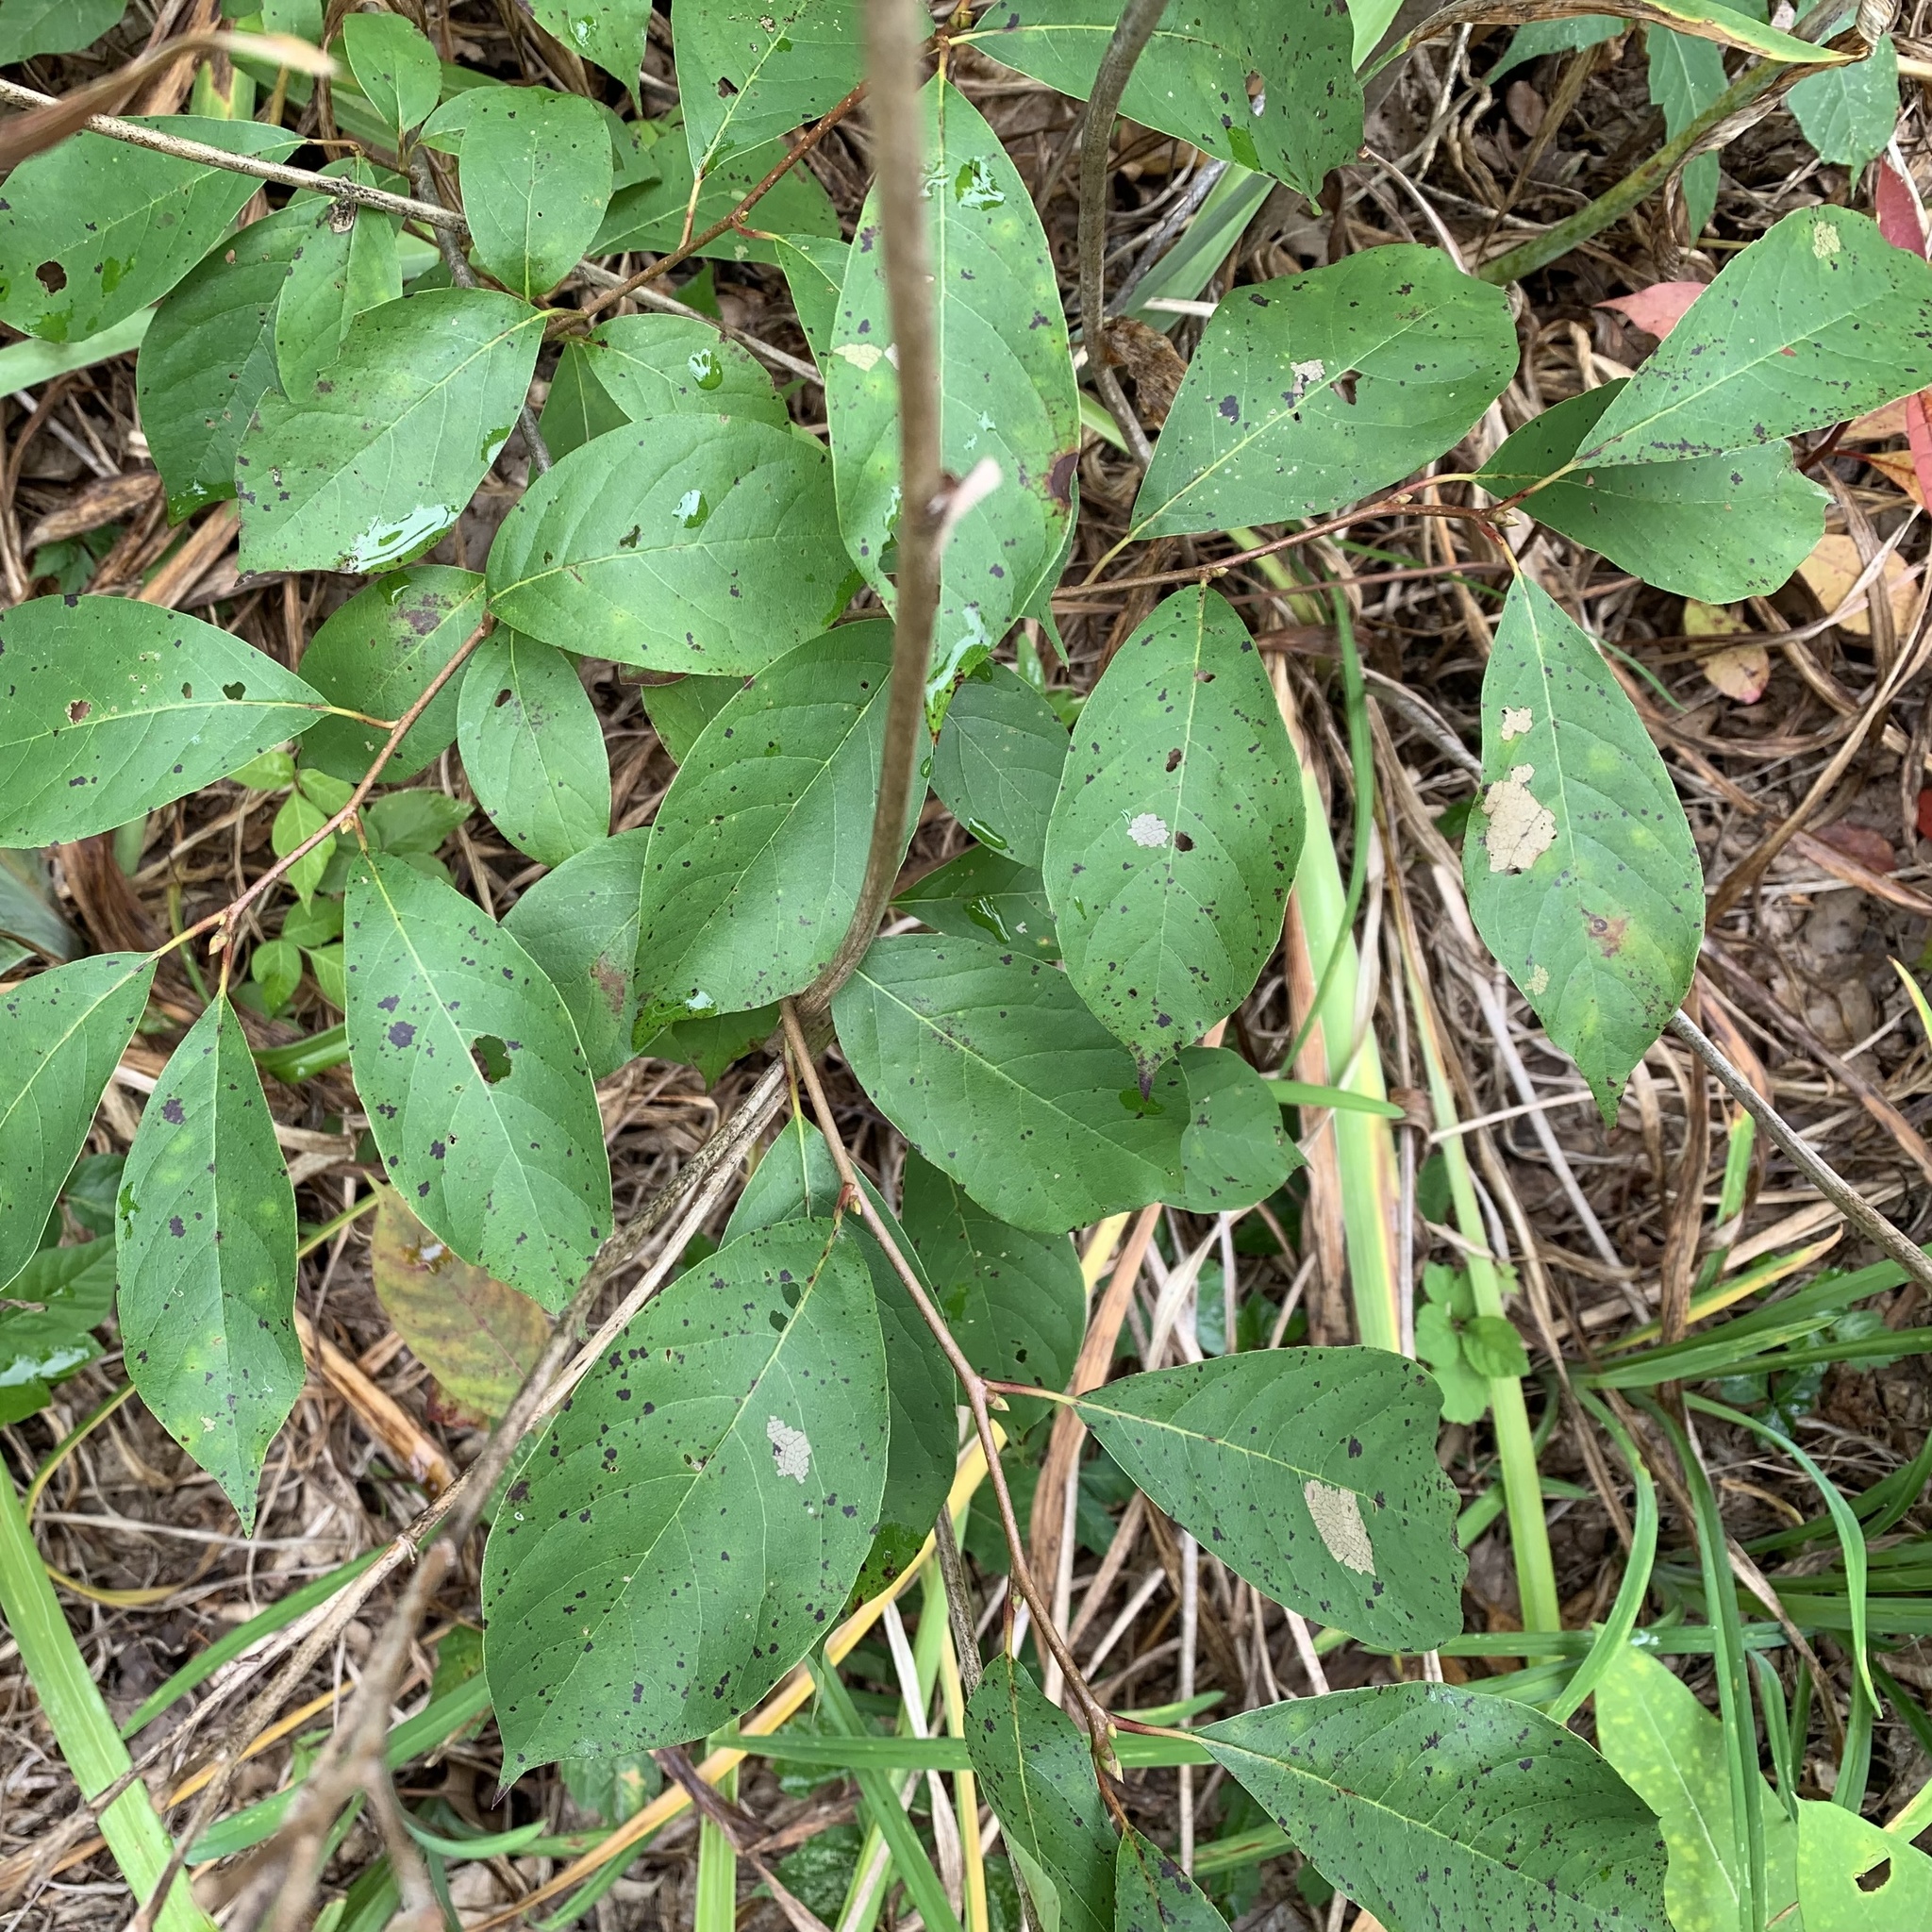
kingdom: Plantae
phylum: Tracheophyta
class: Magnoliopsida
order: Cornales
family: Nyssaceae
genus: Nyssa
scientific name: Nyssa sylvatica
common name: Black tupelo
